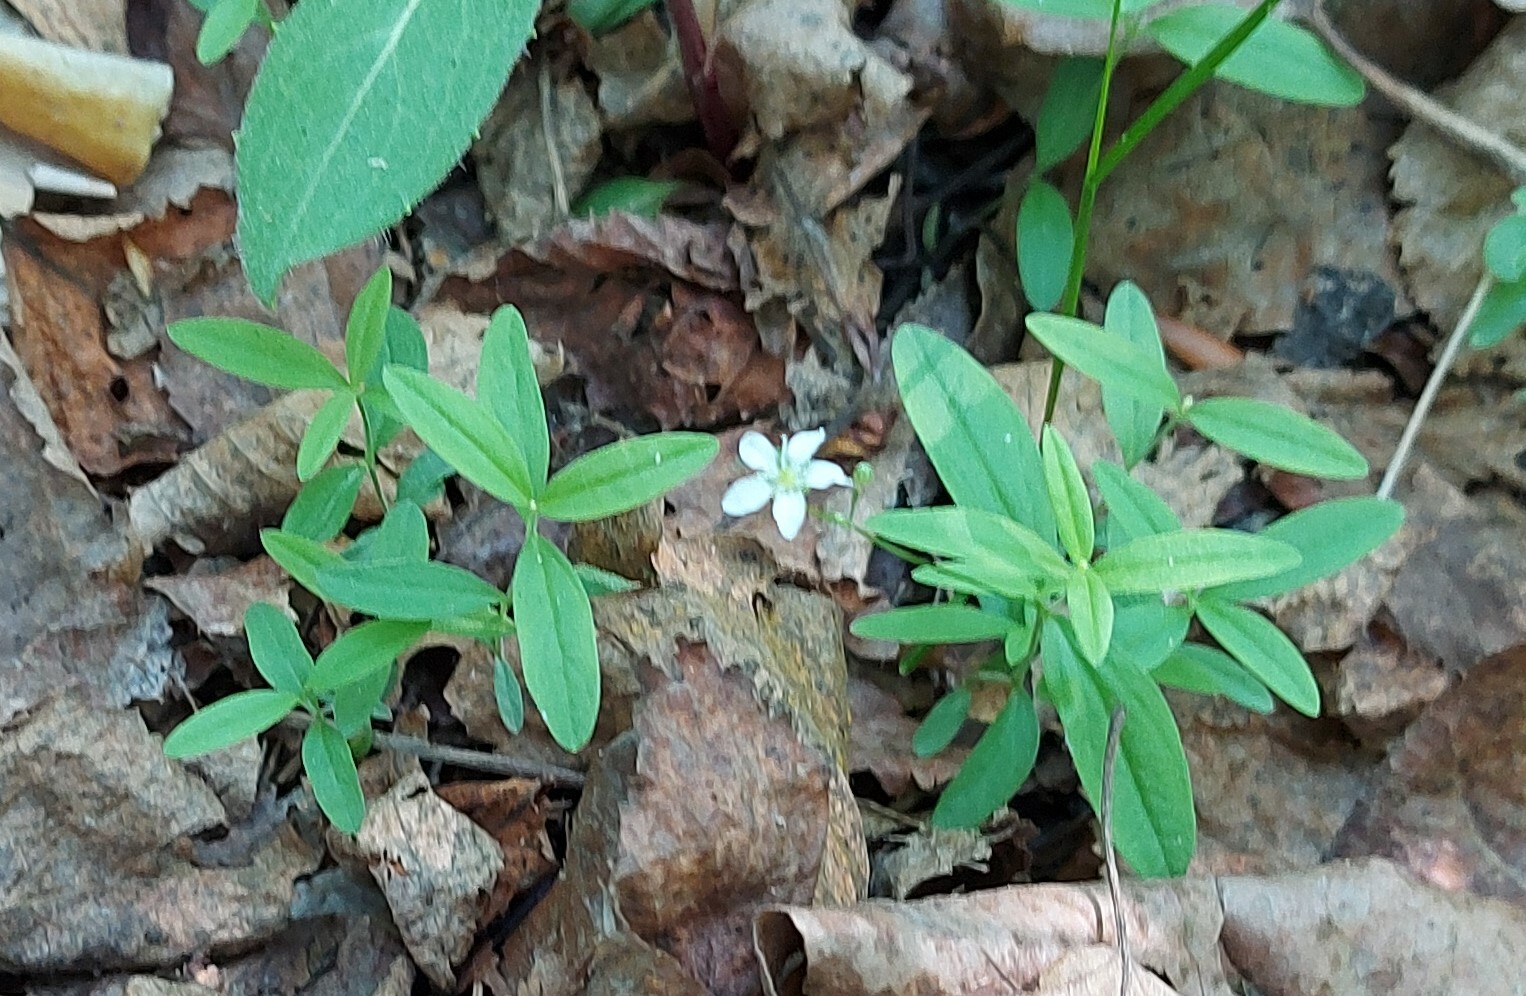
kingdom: Plantae
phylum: Tracheophyta
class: Magnoliopsida
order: Caryophyllales
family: Caryophyllaceae
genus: Moehringia
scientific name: Moehringia lateriflora
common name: Blunt-leaved sandwort
